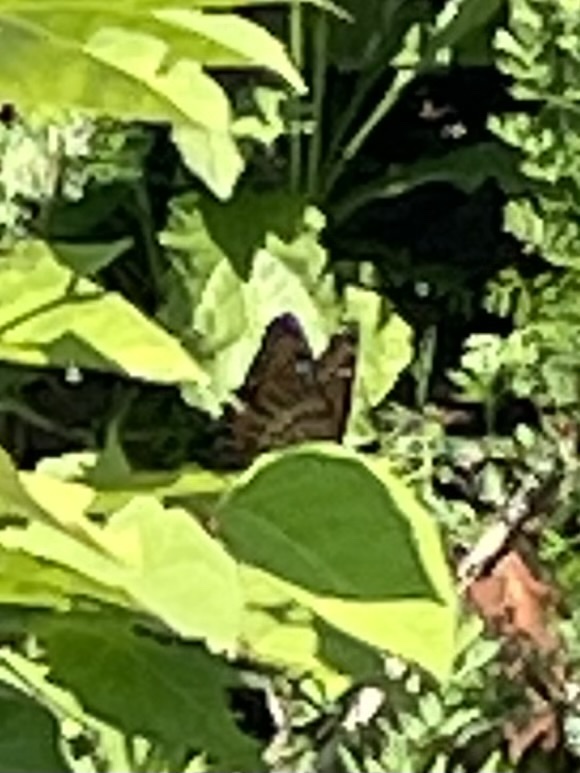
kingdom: Animalia
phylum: Arthropoda
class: Insecta
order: Lepidoptera
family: Nymphalidae
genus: Limenitis
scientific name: Limenitis archippus
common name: Viceroy
